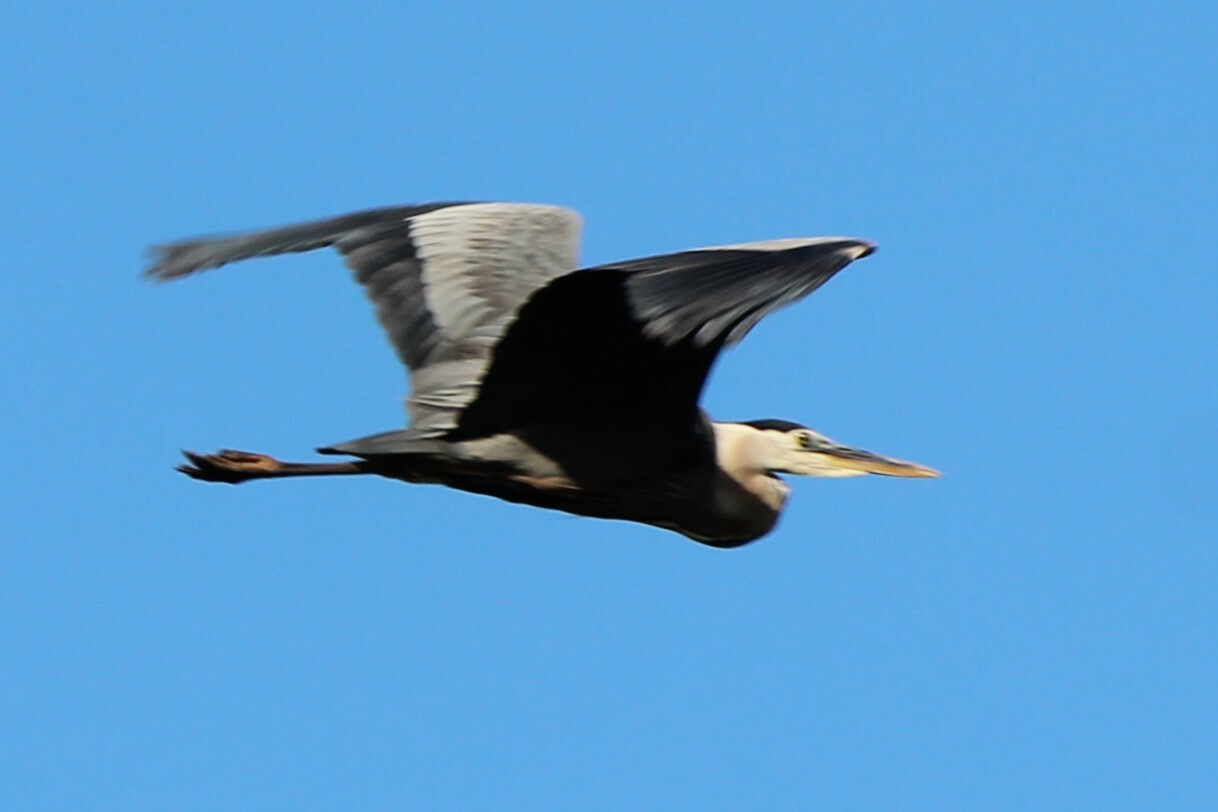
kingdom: Animalia
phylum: Chordata
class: Aves
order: Pelecaniformes
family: Ardeidae
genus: Ardea
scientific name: Ardea herodias
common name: Great blue heron
